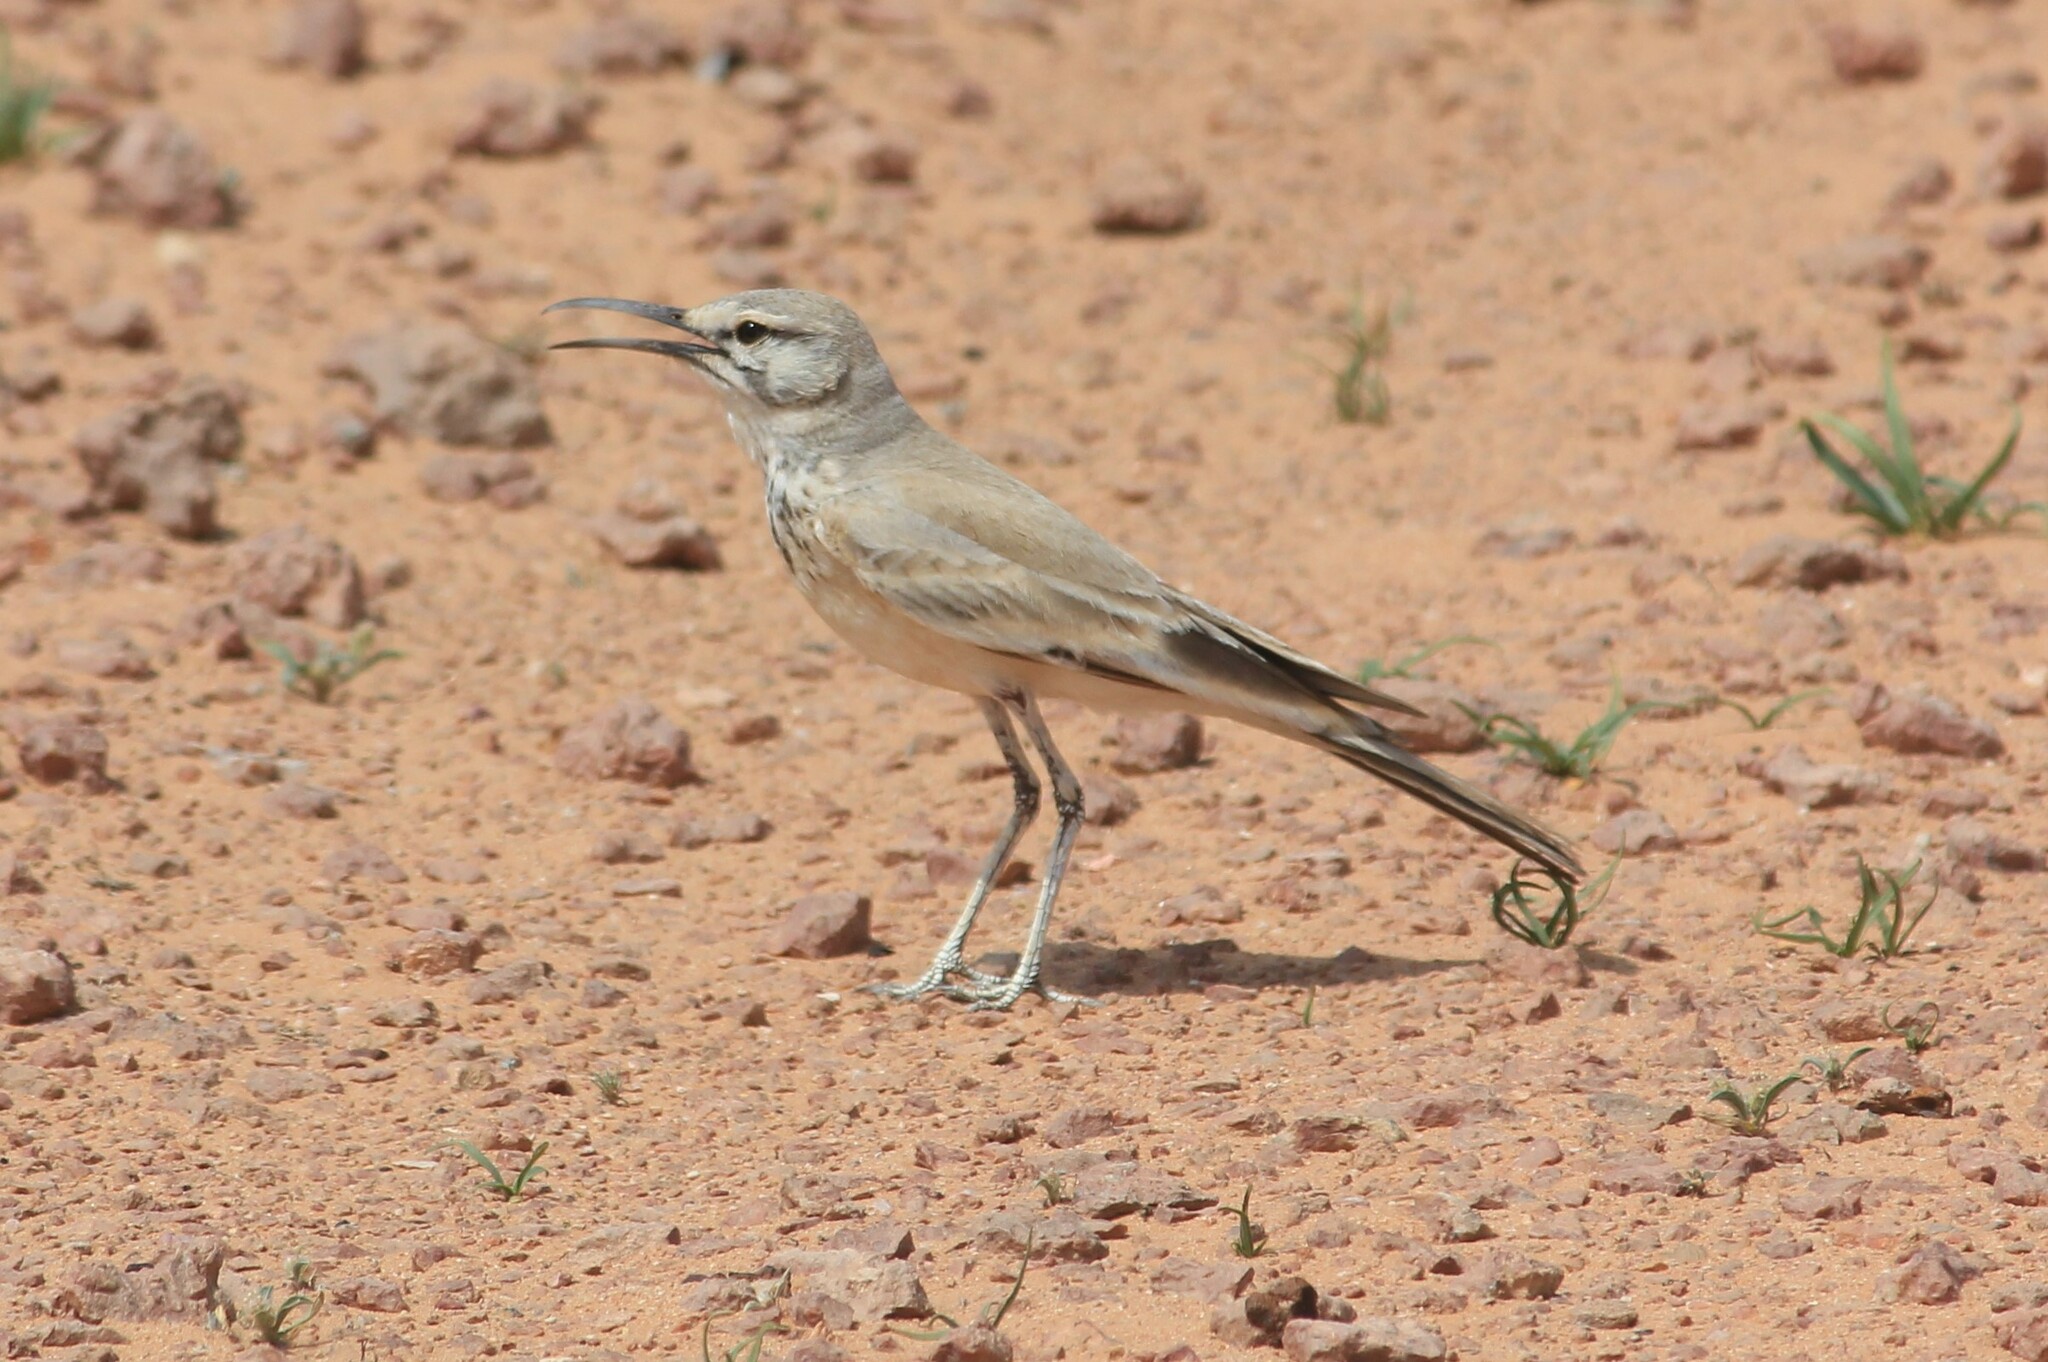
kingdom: Animalia
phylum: Chordata
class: Aves
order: Passeriformes
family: Alaudidae
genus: Alaemon
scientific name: Alaemon alaudipes
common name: Greater hoopoe-lark
